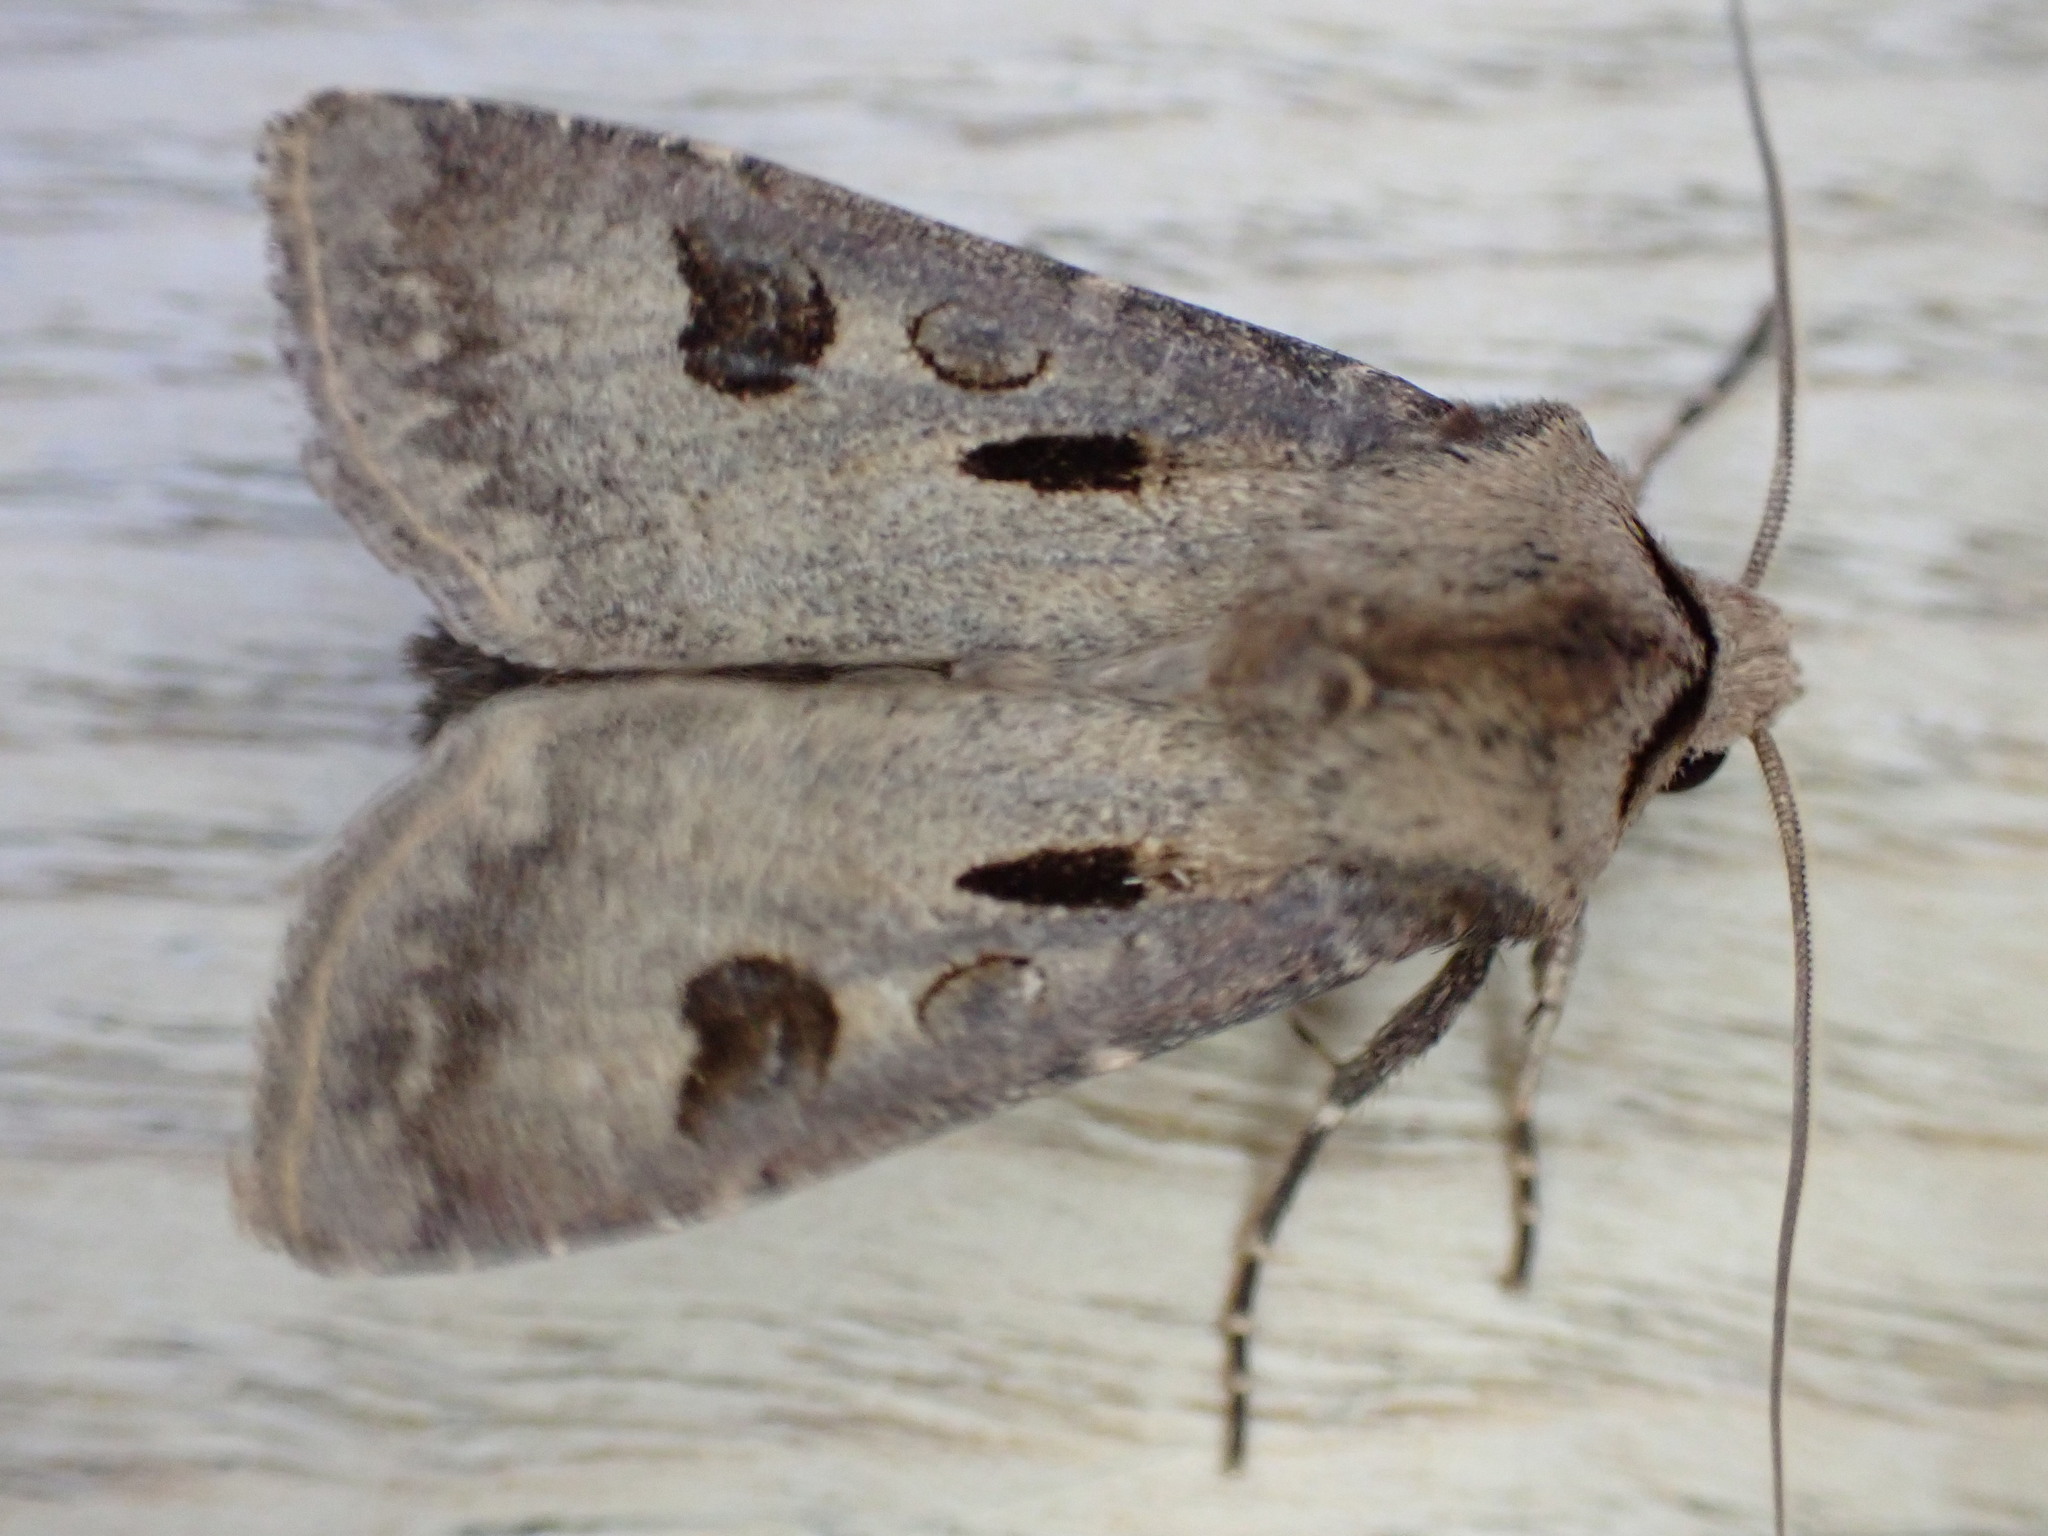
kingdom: Animalia
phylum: Arthropoda
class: Insecta
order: Lepidoptera
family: Noctuidae
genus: Agrotis
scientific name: Agrotis exclamationis
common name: Heart and dart
